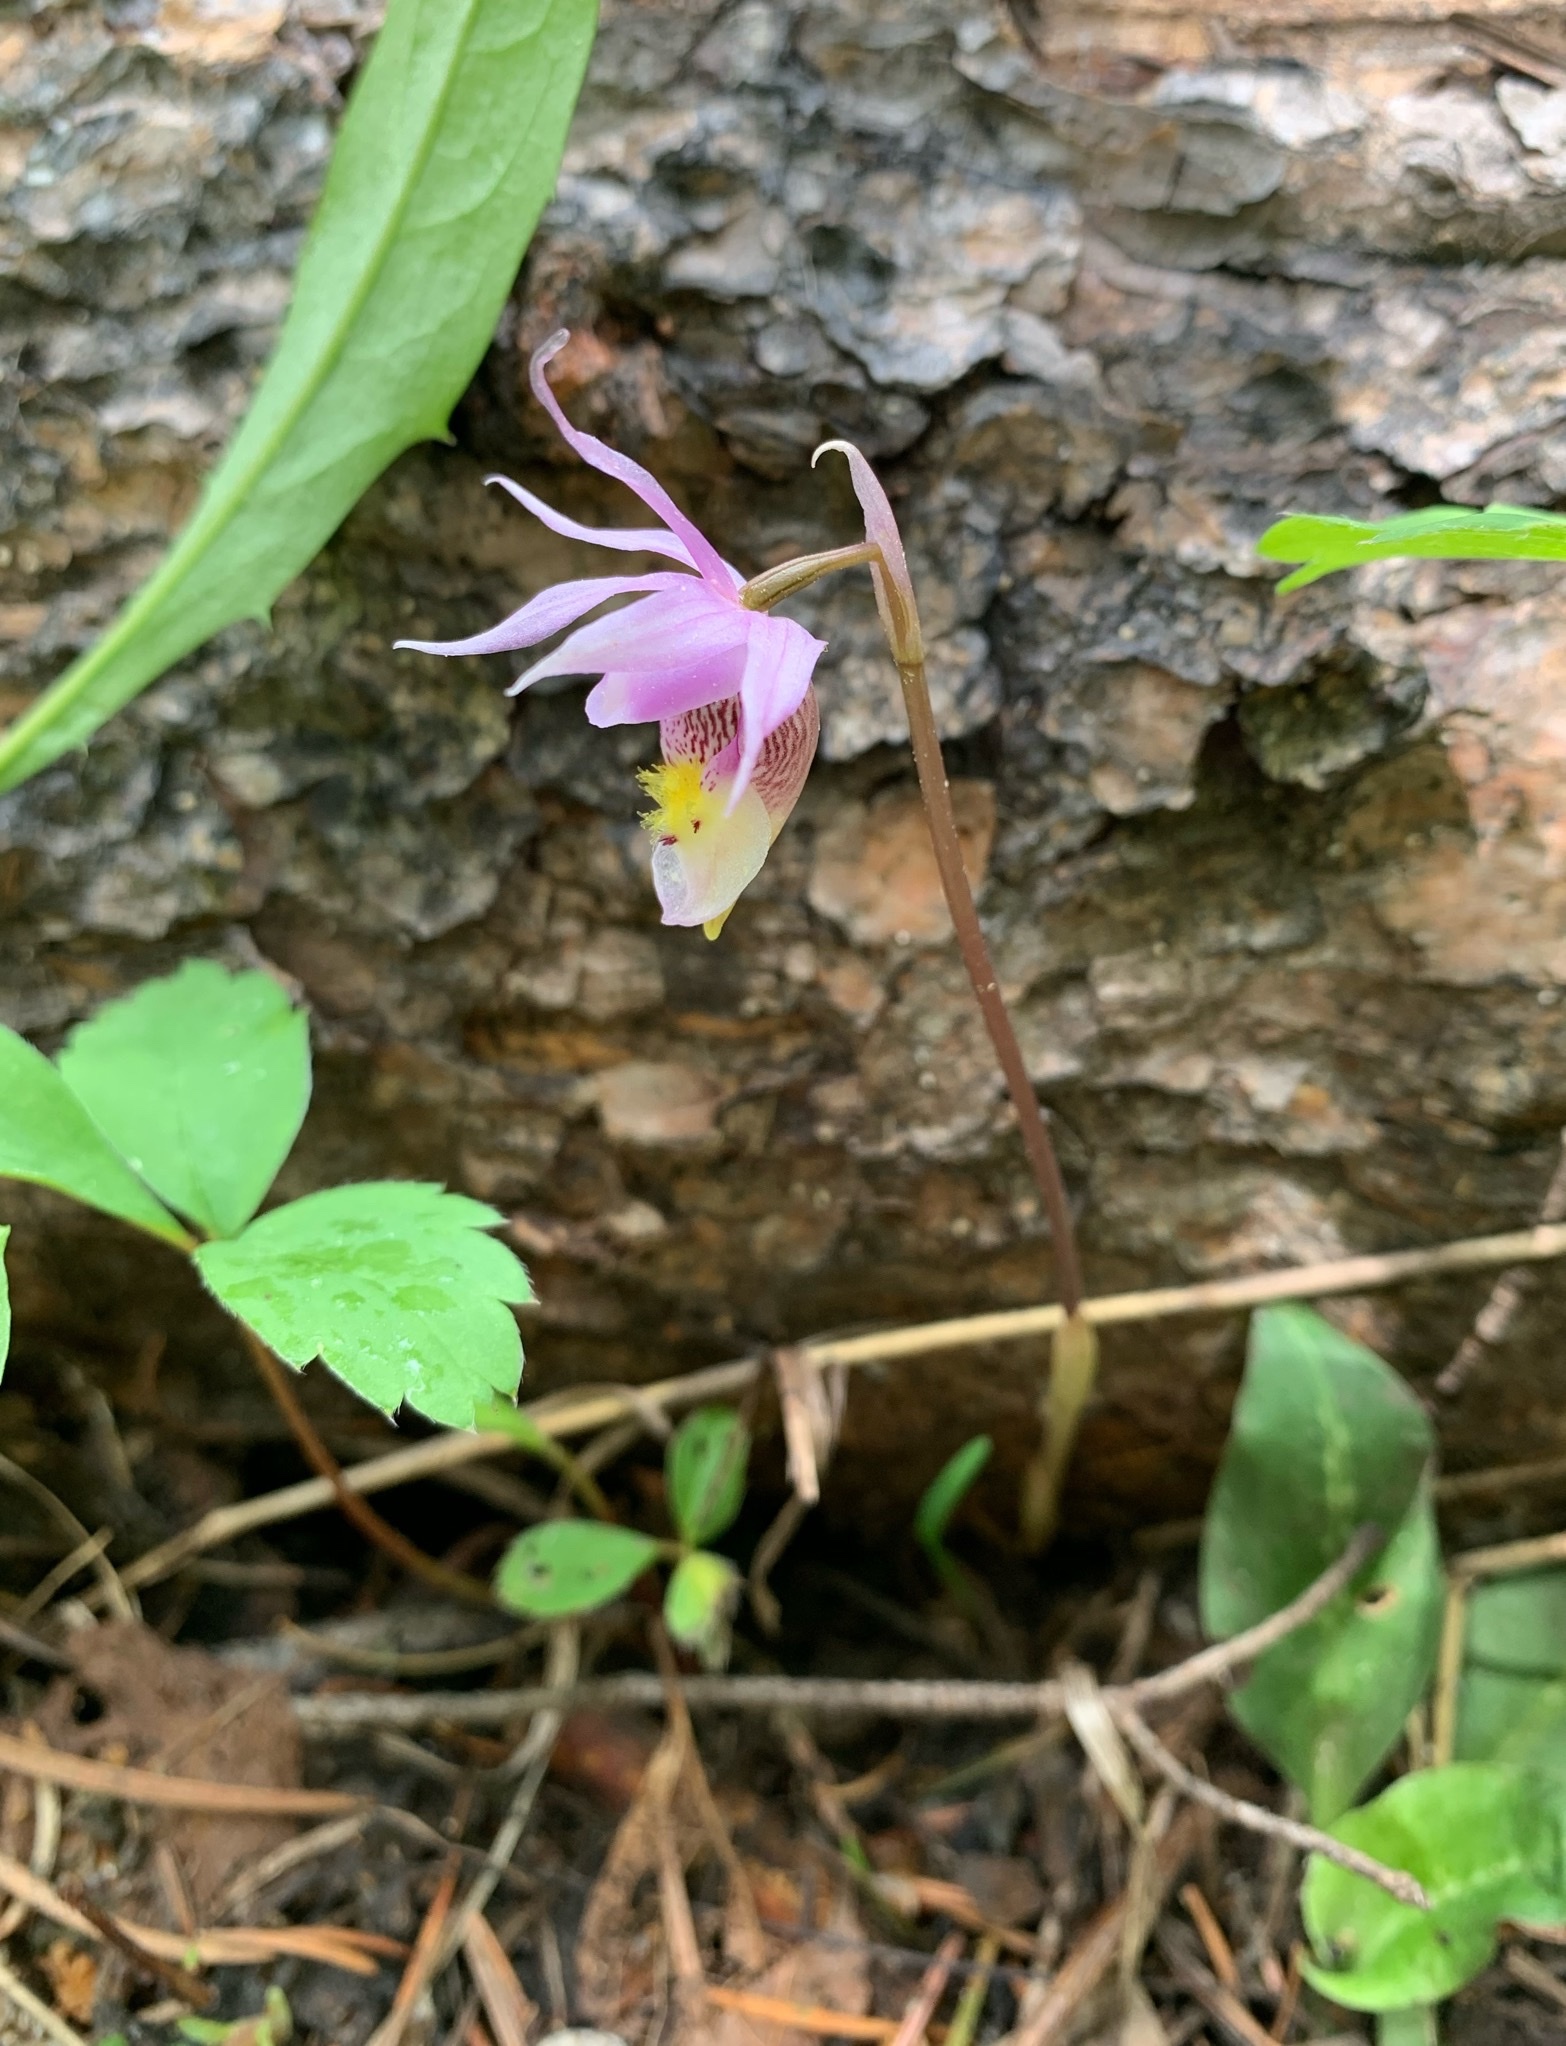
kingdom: Plantae
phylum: Tracheophyta
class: Liliopsida
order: Asparagales
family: Orchidaceae
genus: Calypso
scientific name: Calypso bulbosa
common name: Calypso
